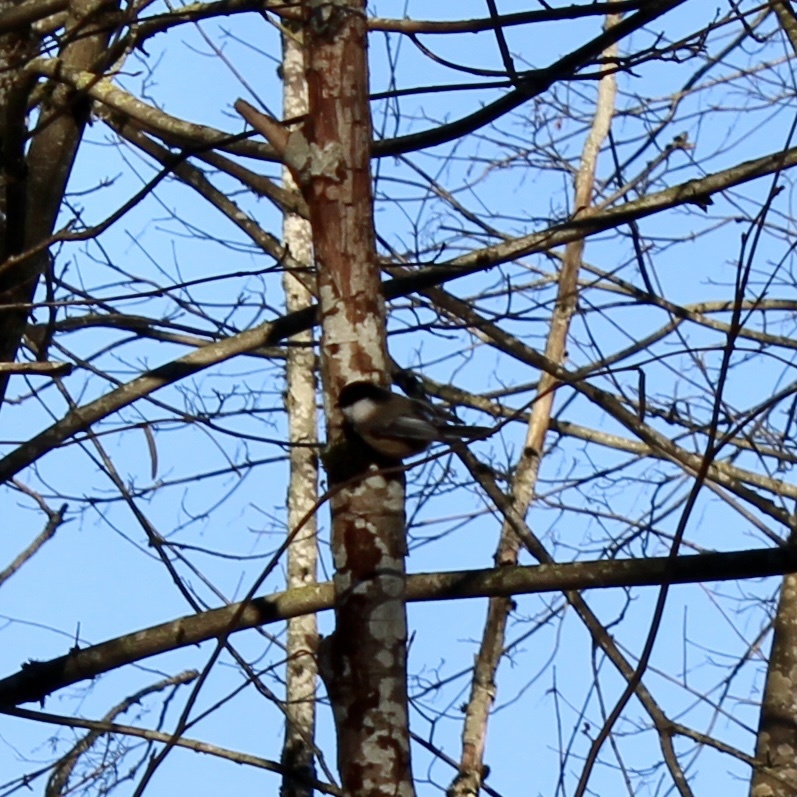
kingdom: Animalia
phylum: Chordata
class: Aves
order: Passeriformes
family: Paridae
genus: Poecile
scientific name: Poecile atricapillus
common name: Black-capped chickadee
